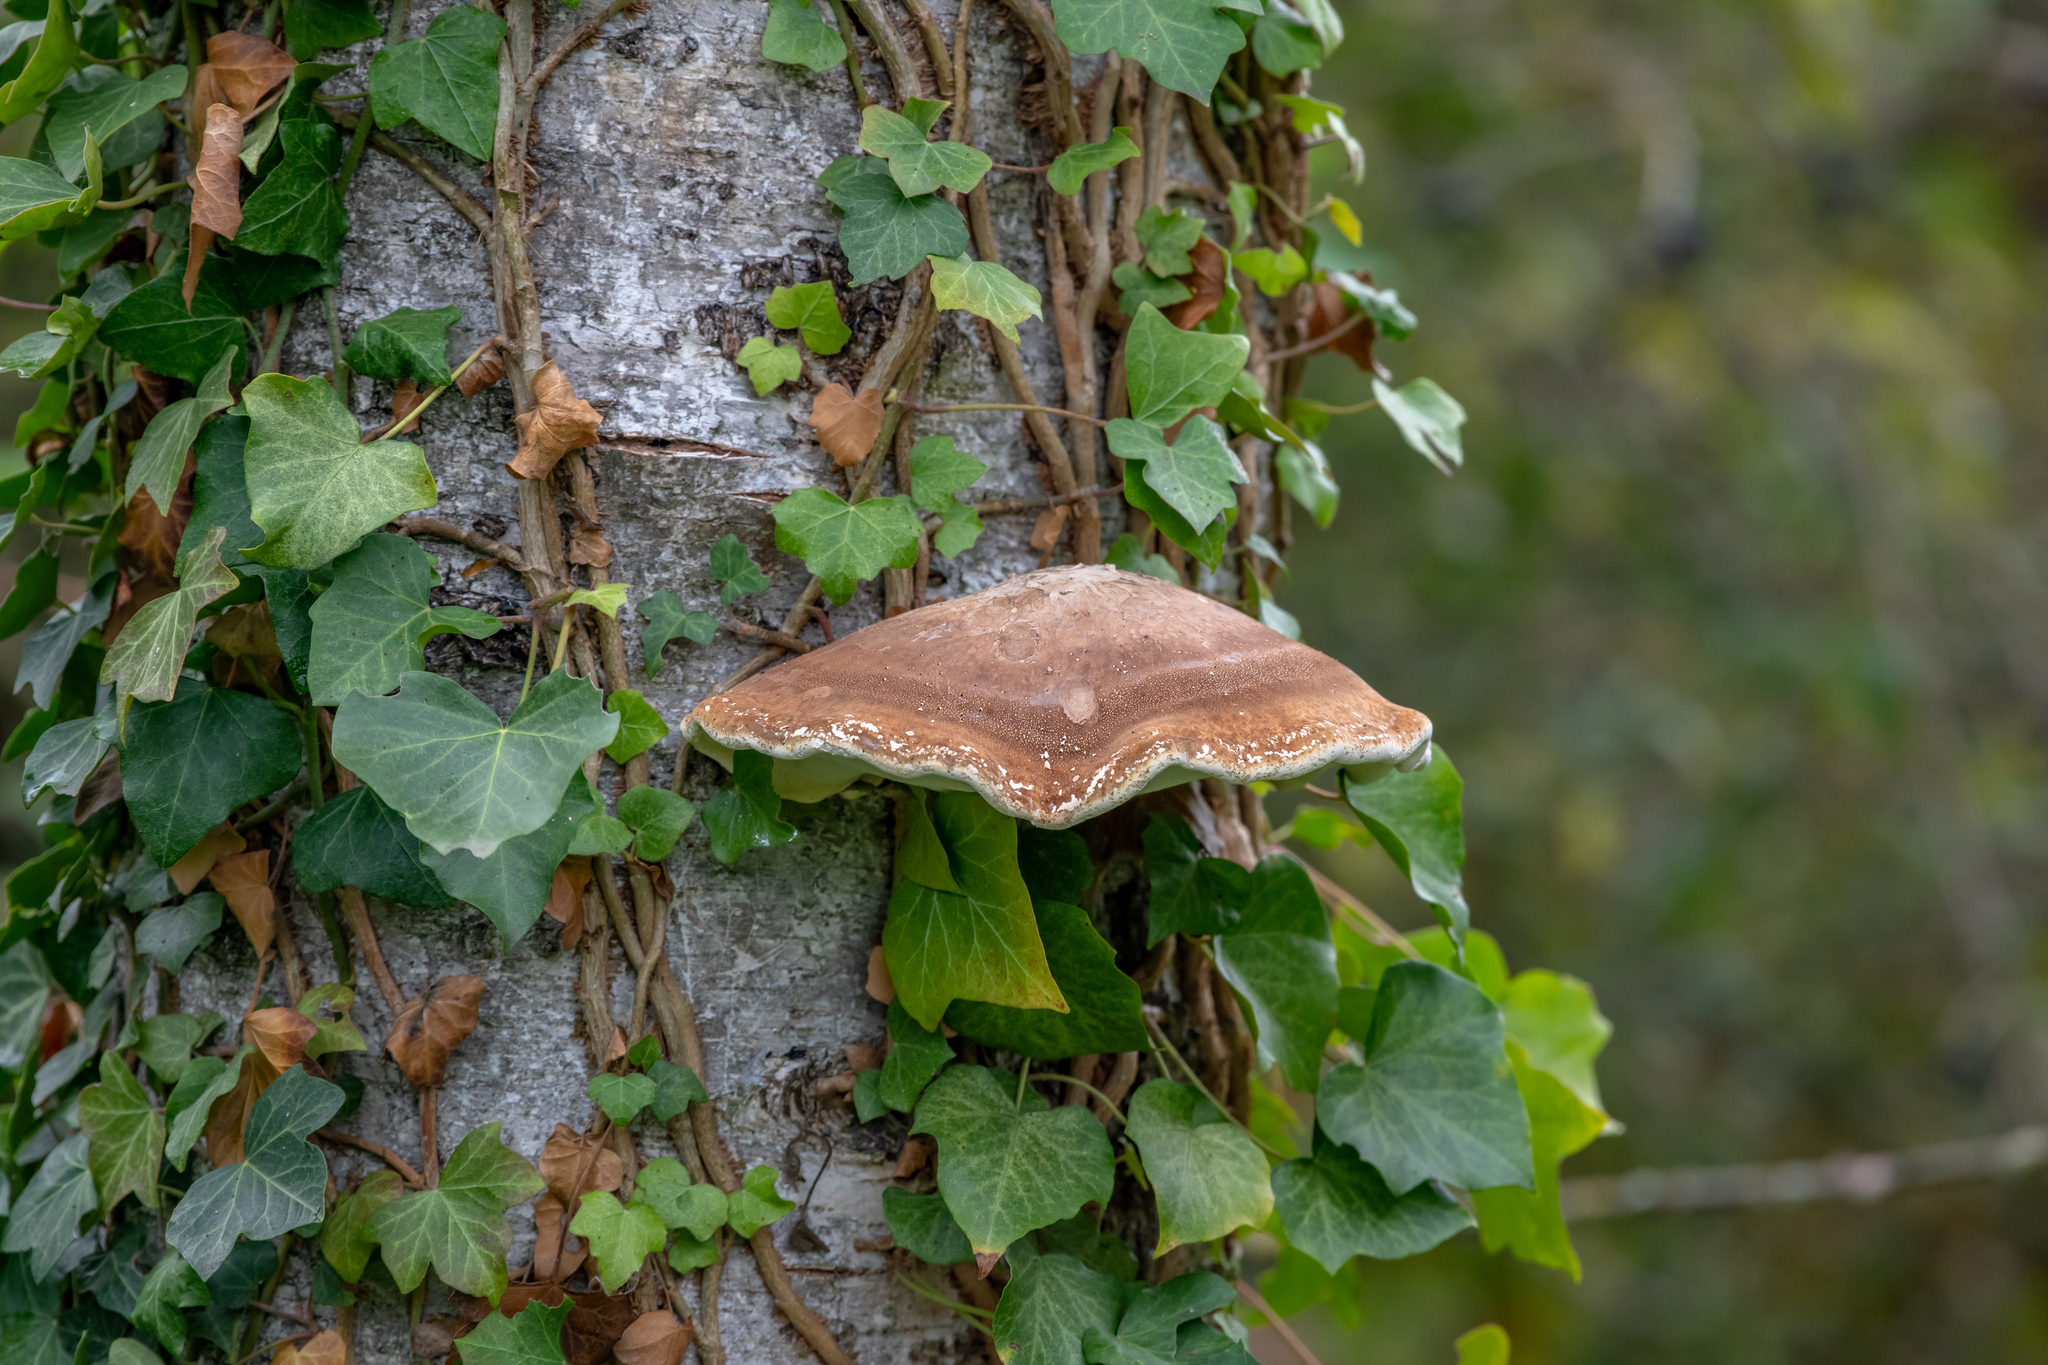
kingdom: Fungi
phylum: Basidiomycota
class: Agaricomycetes
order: Polyporales
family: Fomitopsidaceae
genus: Fomitopsis
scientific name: Fomitopsis betulina
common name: Birch polypore
